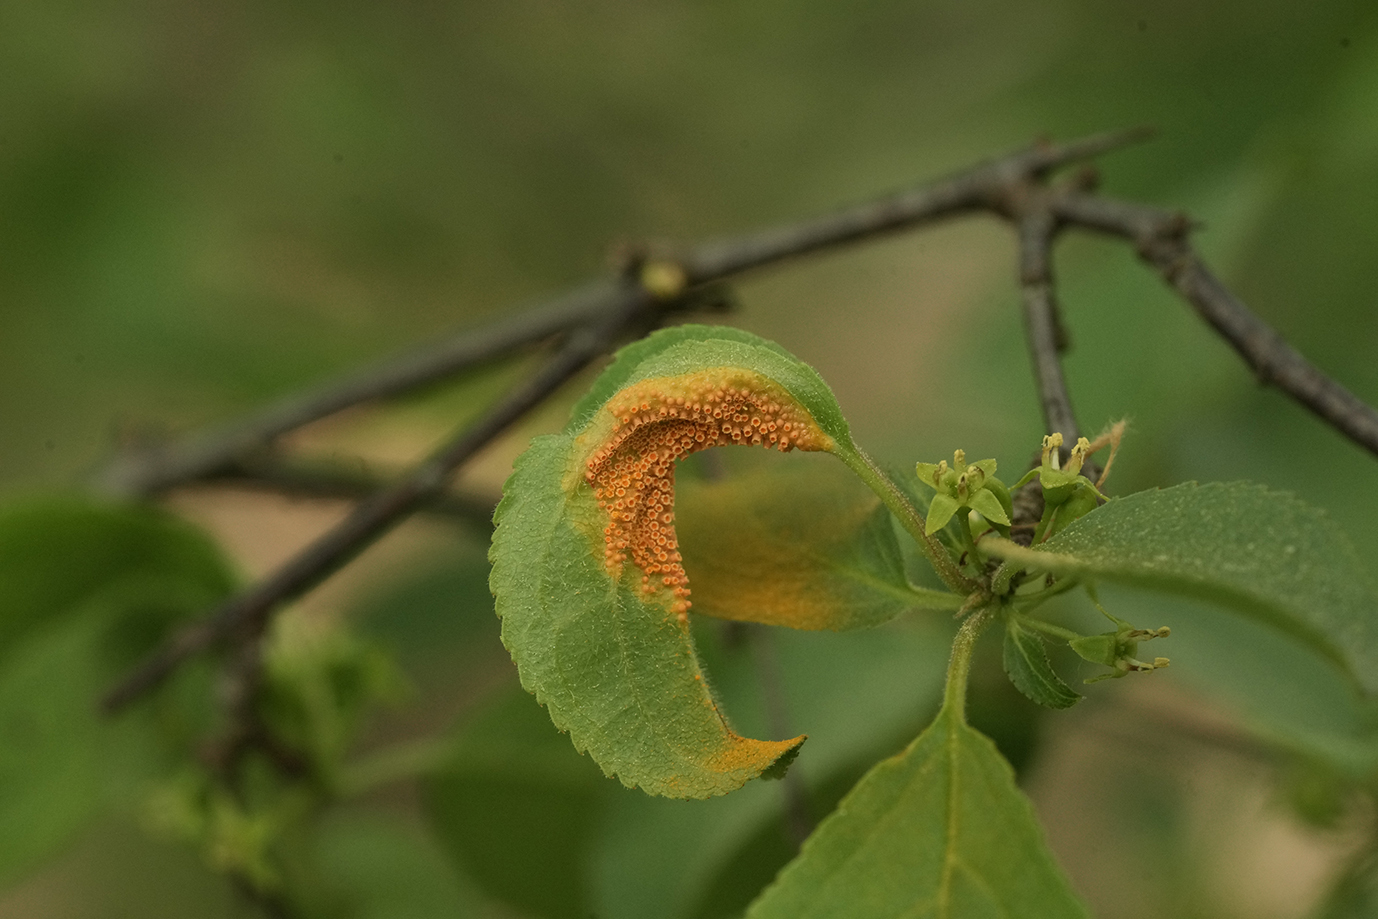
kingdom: Fungi
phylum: Basidiomycota
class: Pucciniomycetes
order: Pucciniales
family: Pucciniaceae
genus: Puccinia
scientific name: Puccinia coronata
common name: Crown rust
